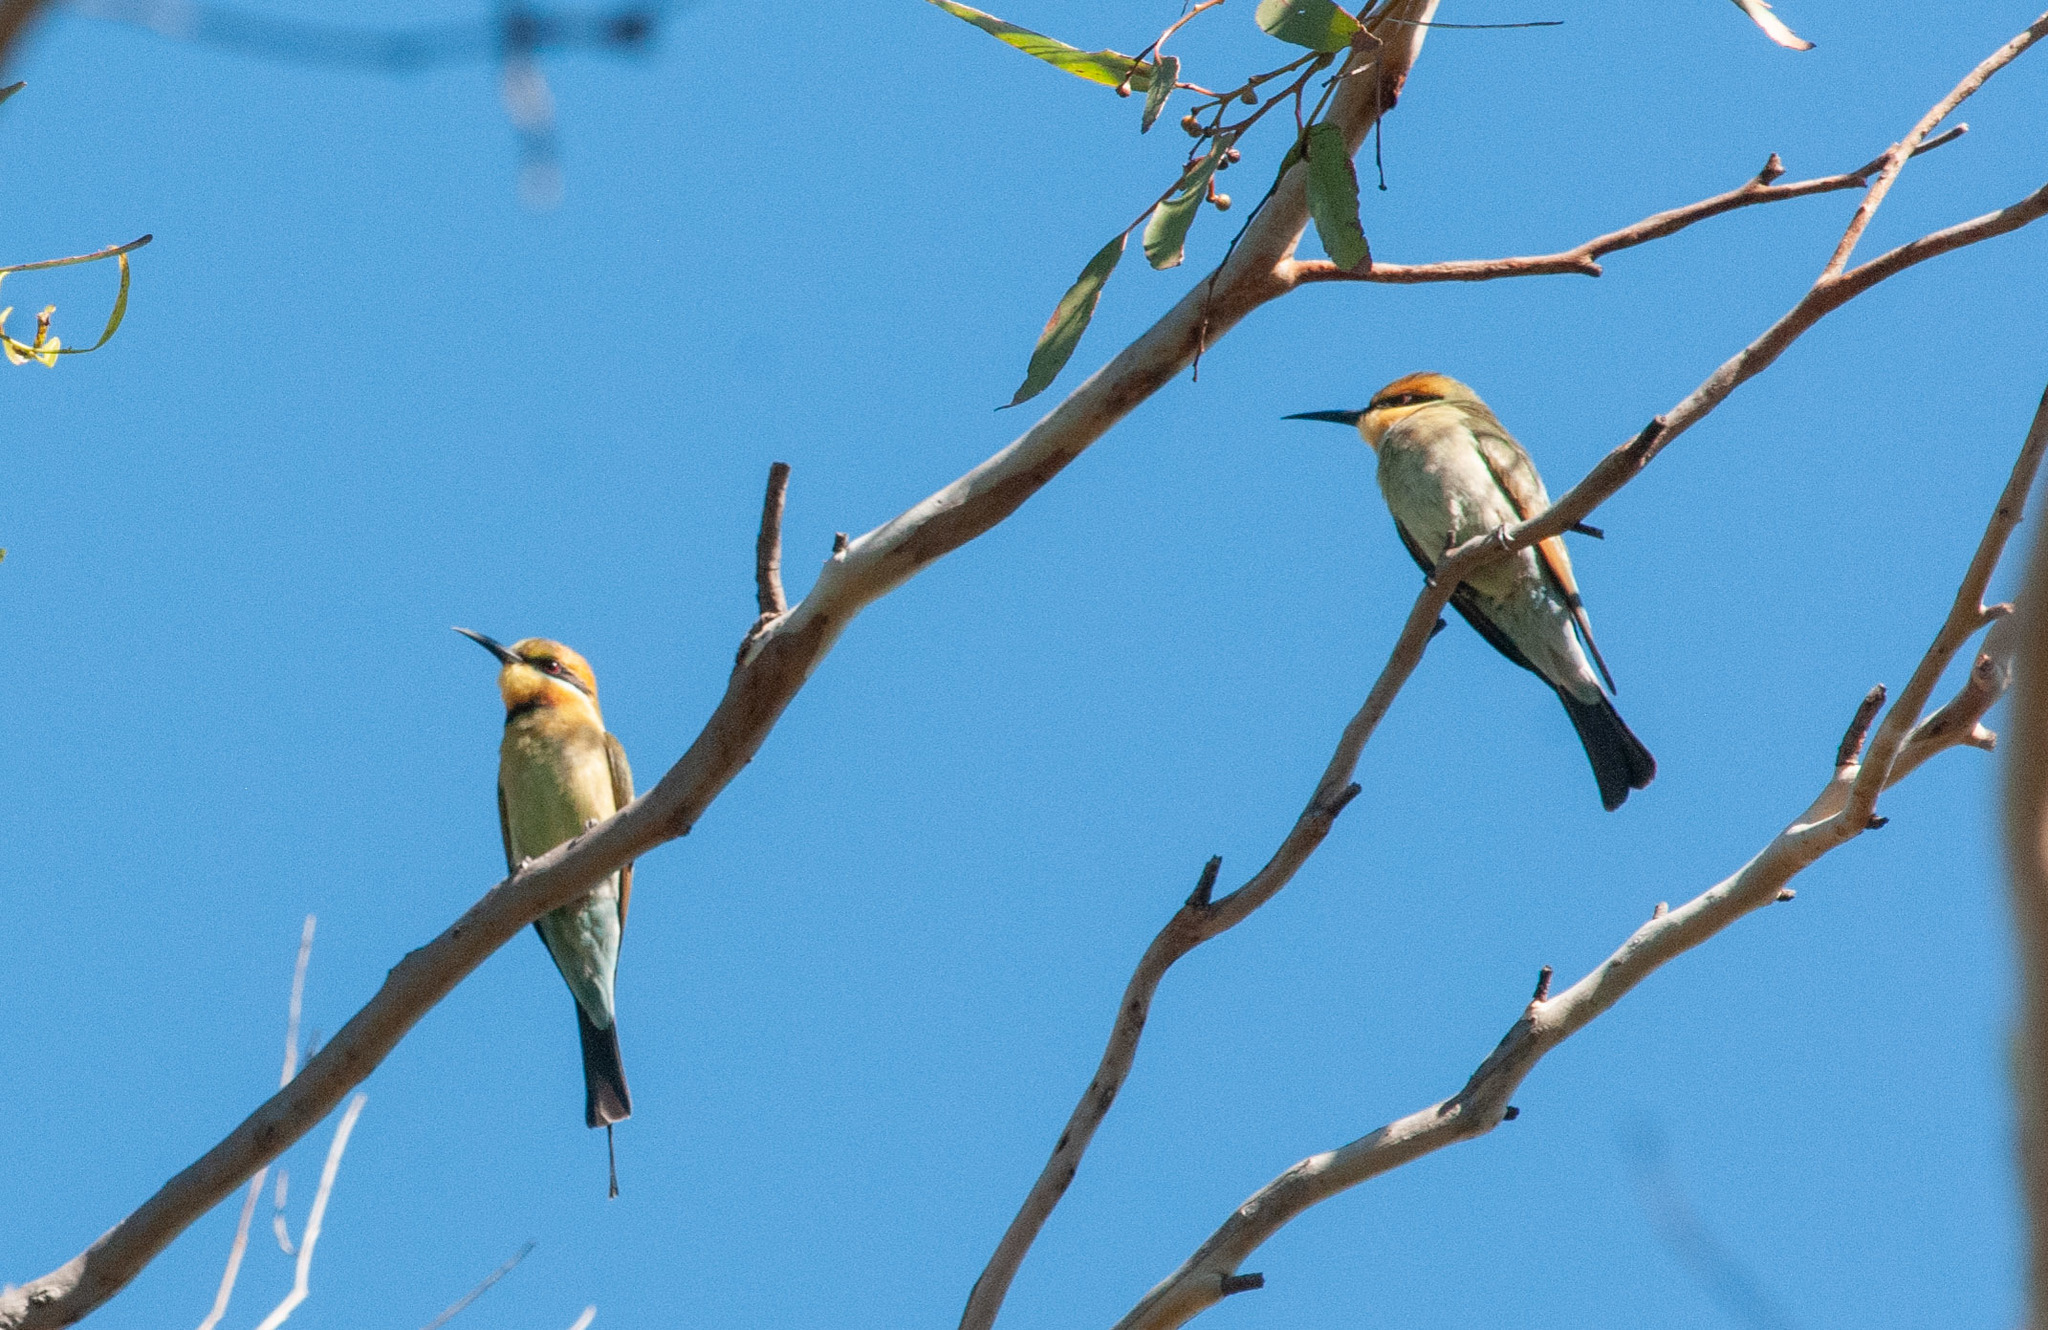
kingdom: Animalia
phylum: Chordata
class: Aves
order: Coraciiformes
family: Meropidae
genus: Merops
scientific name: Merops ornatus
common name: Rainbow bee-eater
